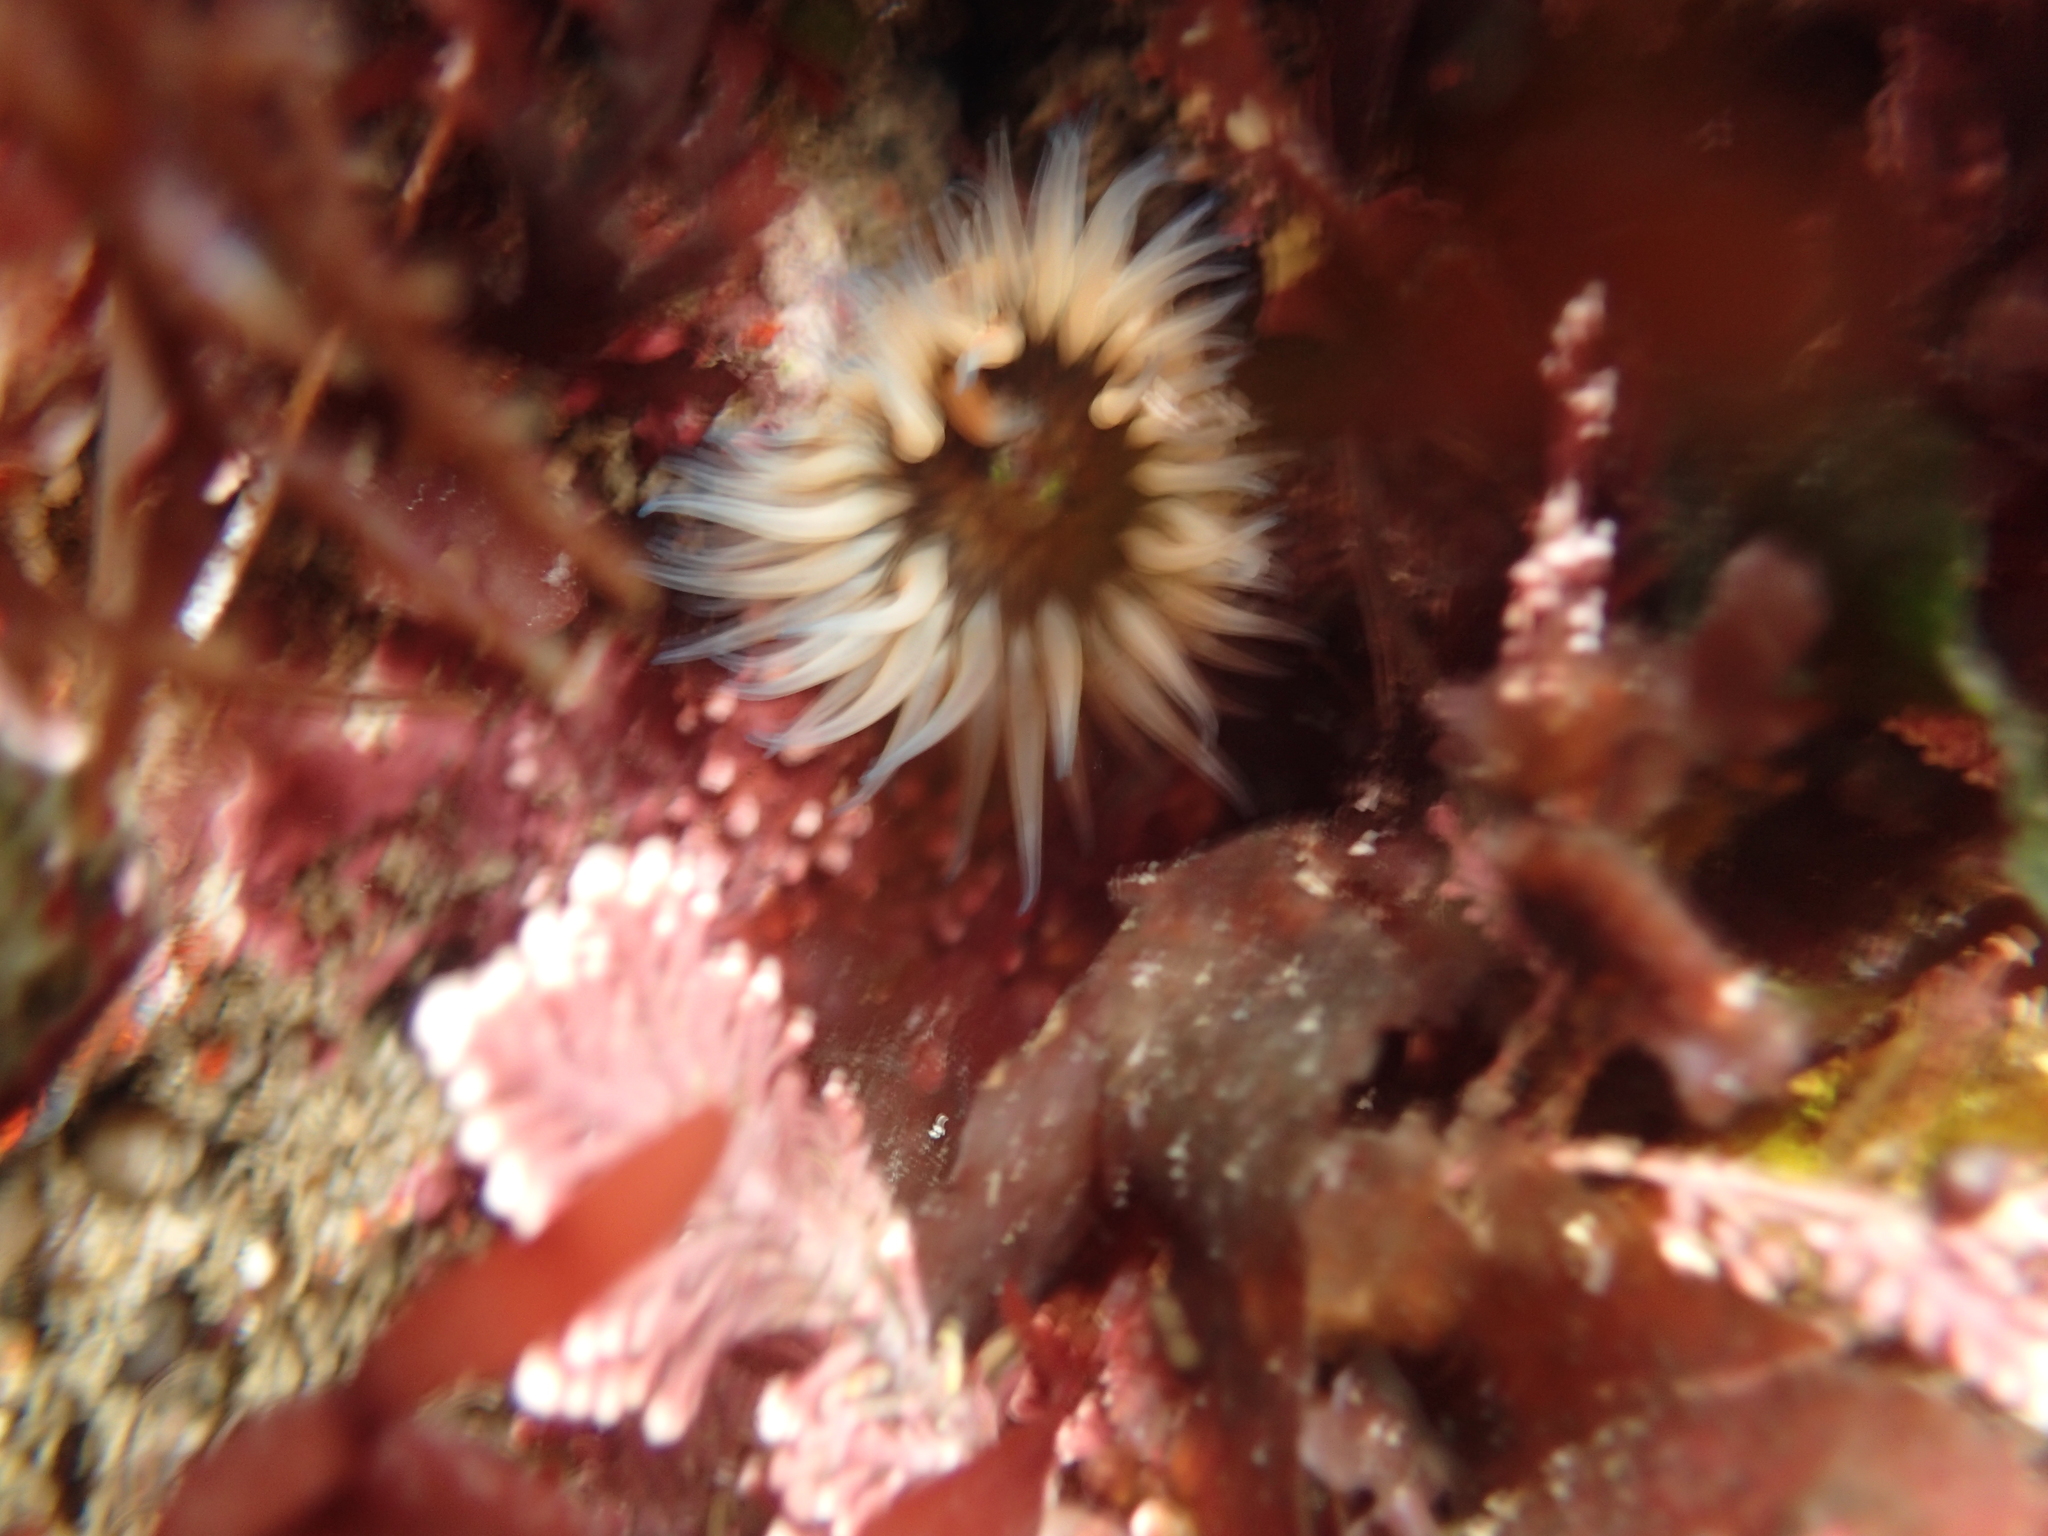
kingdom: Animalia
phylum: Cnidaria
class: Anthozoa
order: Actiniaria
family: Actiniidae
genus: Anthopleura
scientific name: Anthopleura artemisia
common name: Buried sea anemone
